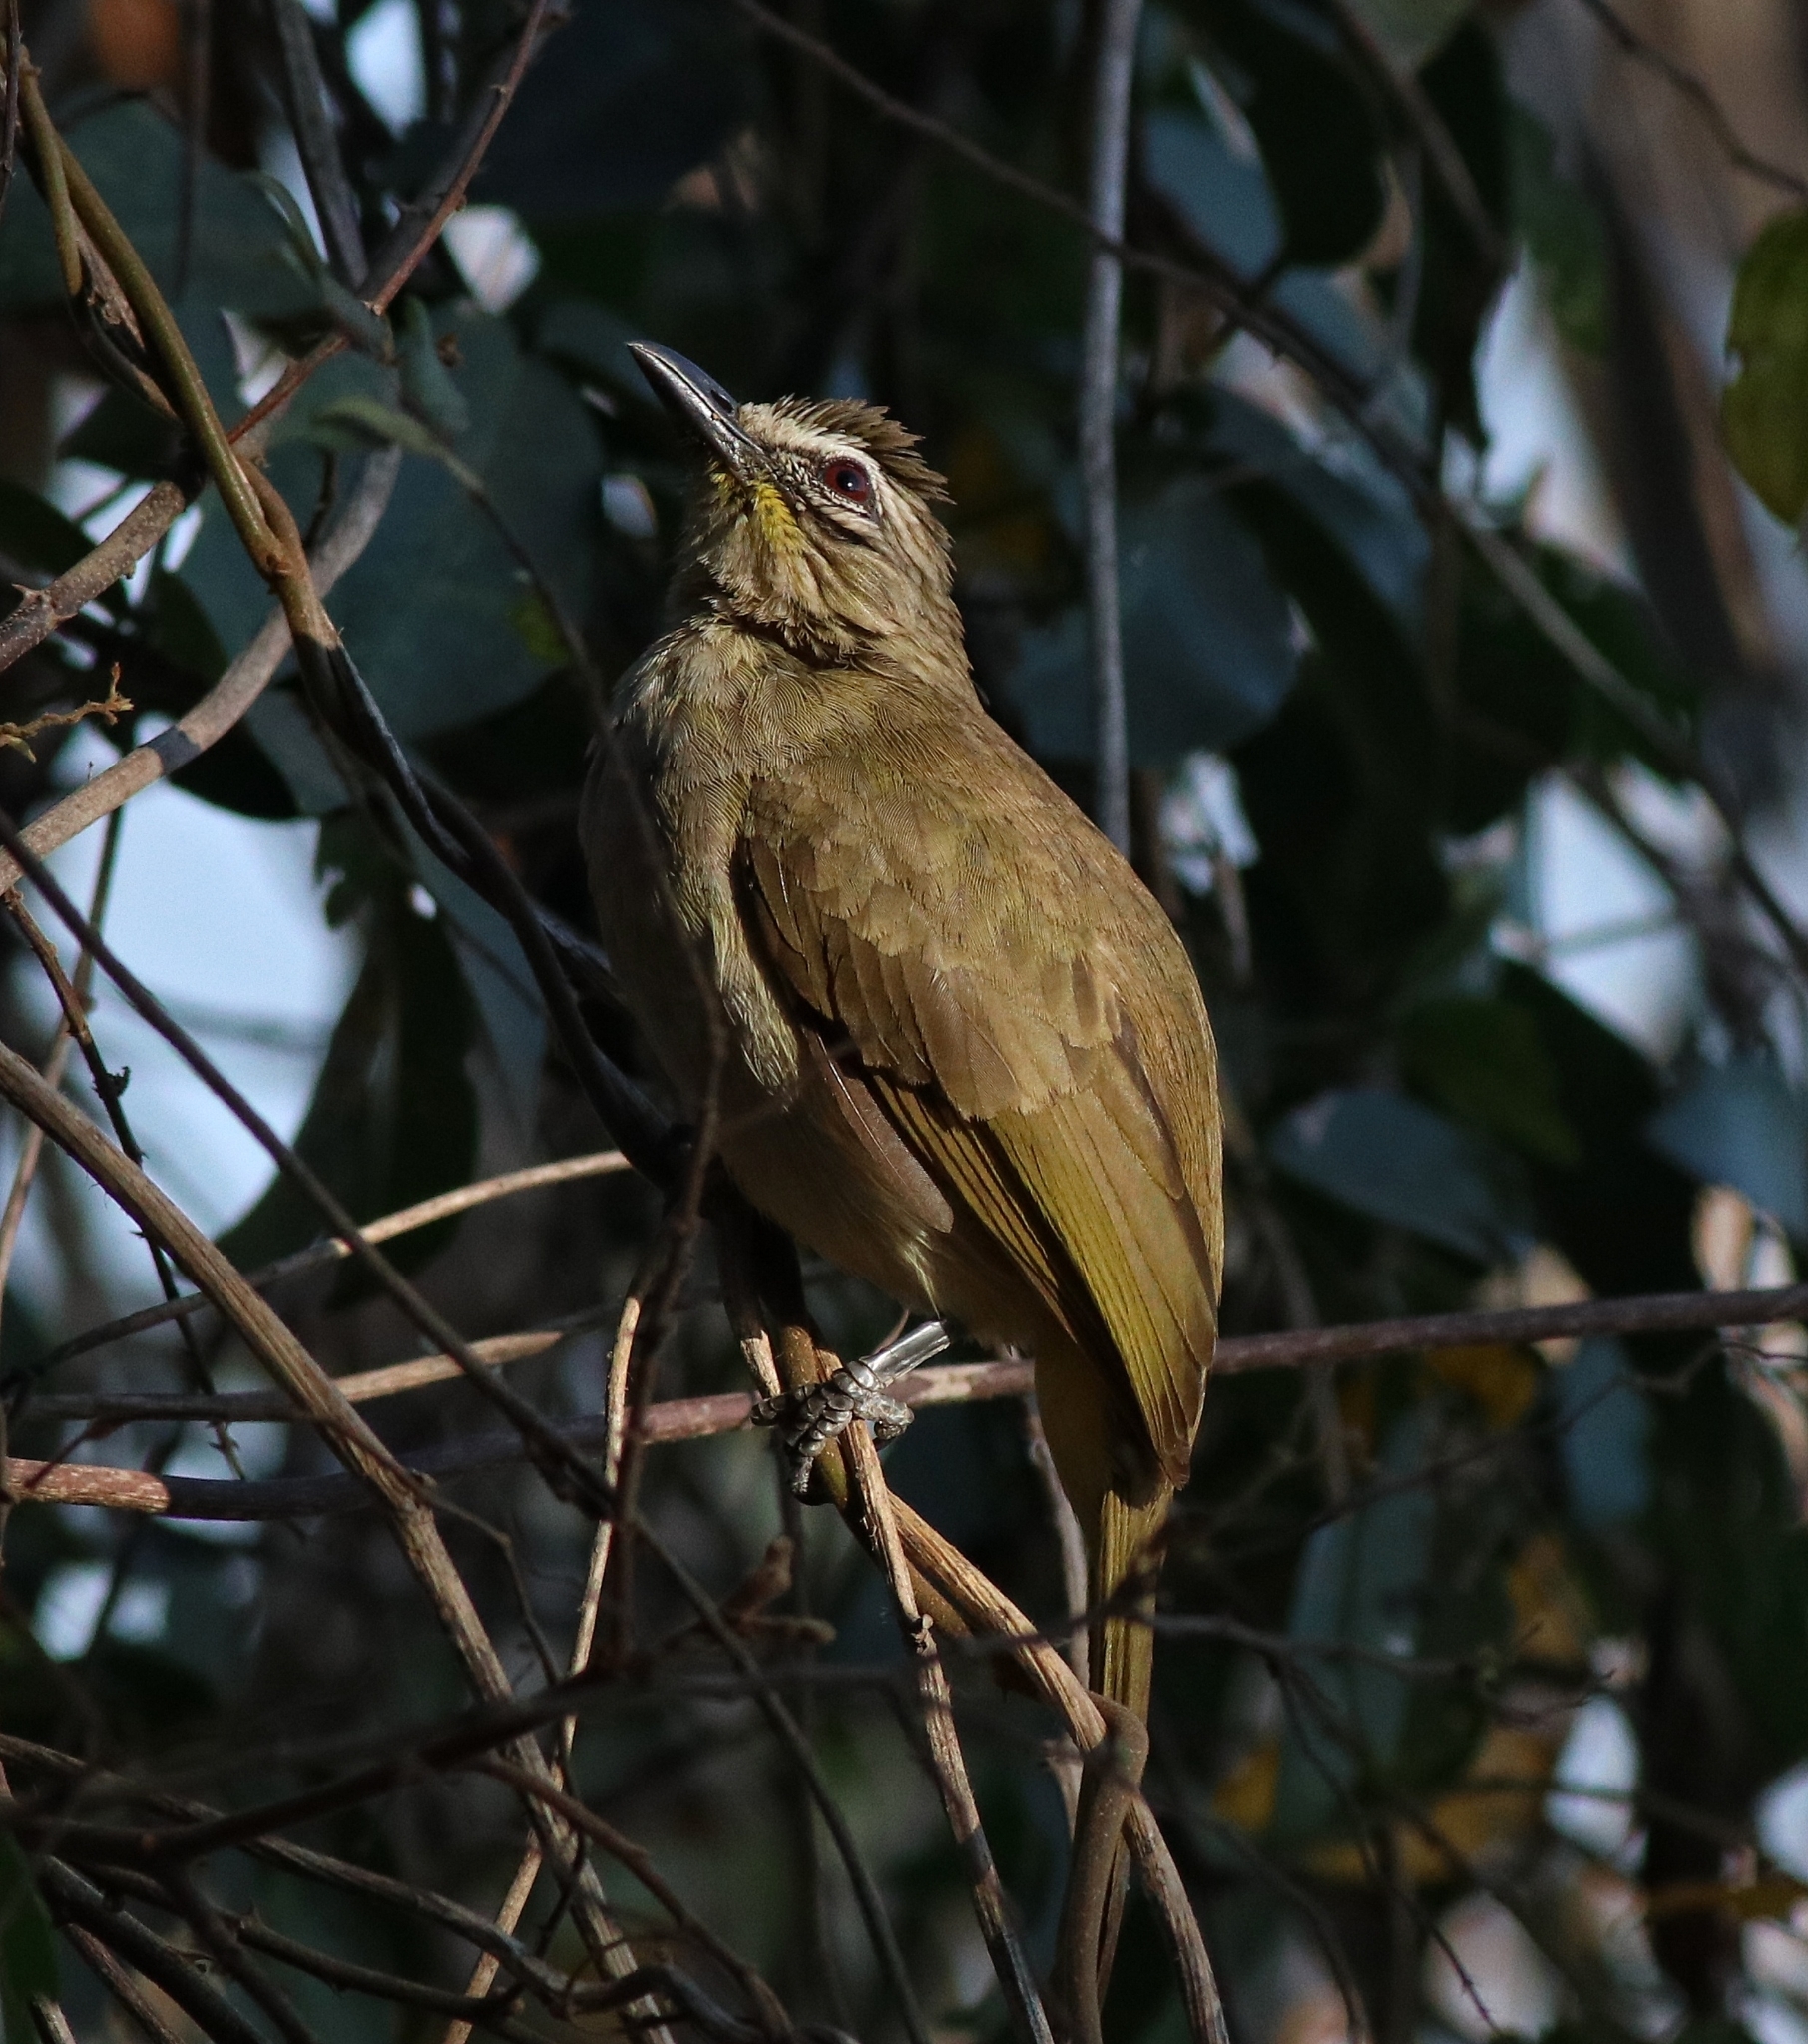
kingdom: Animalia
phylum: Chordata
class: Aves
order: Passeriformes
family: Pycnonotidae
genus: Pycnonotus
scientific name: Pycnonotus luteolus
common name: White-browed bulbul
